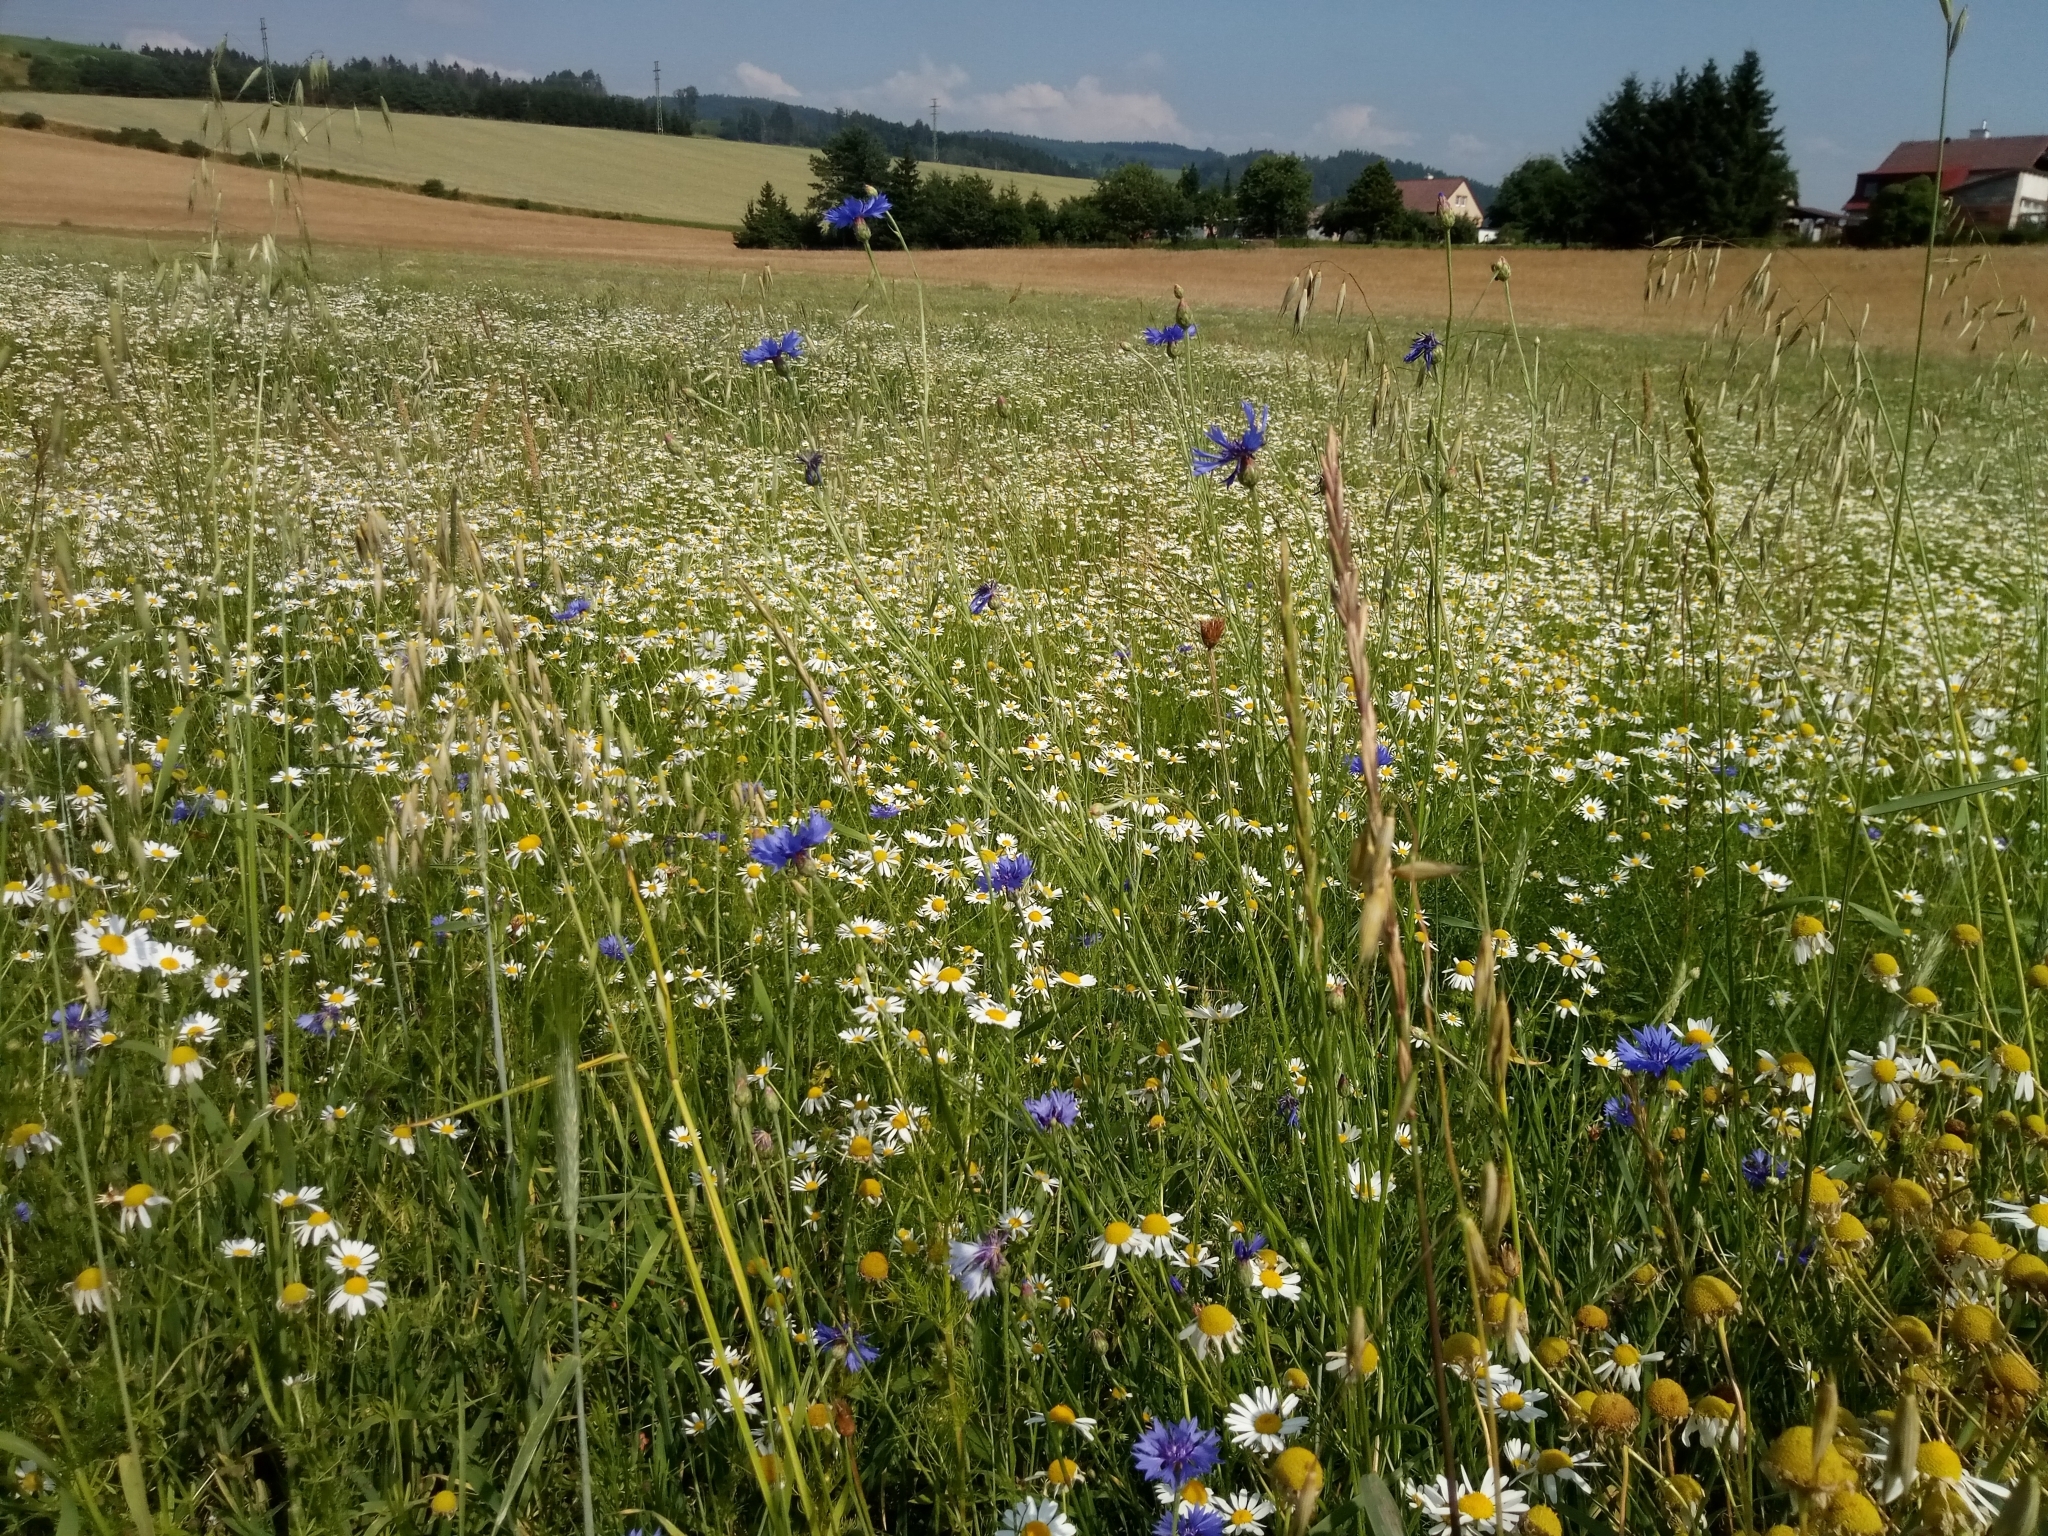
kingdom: Plantae
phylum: Tracheophyta
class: Magnoliopsida
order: Asterales
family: Asteraceae
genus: Centaurea
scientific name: Centaurea cyanus
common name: Cornflower
